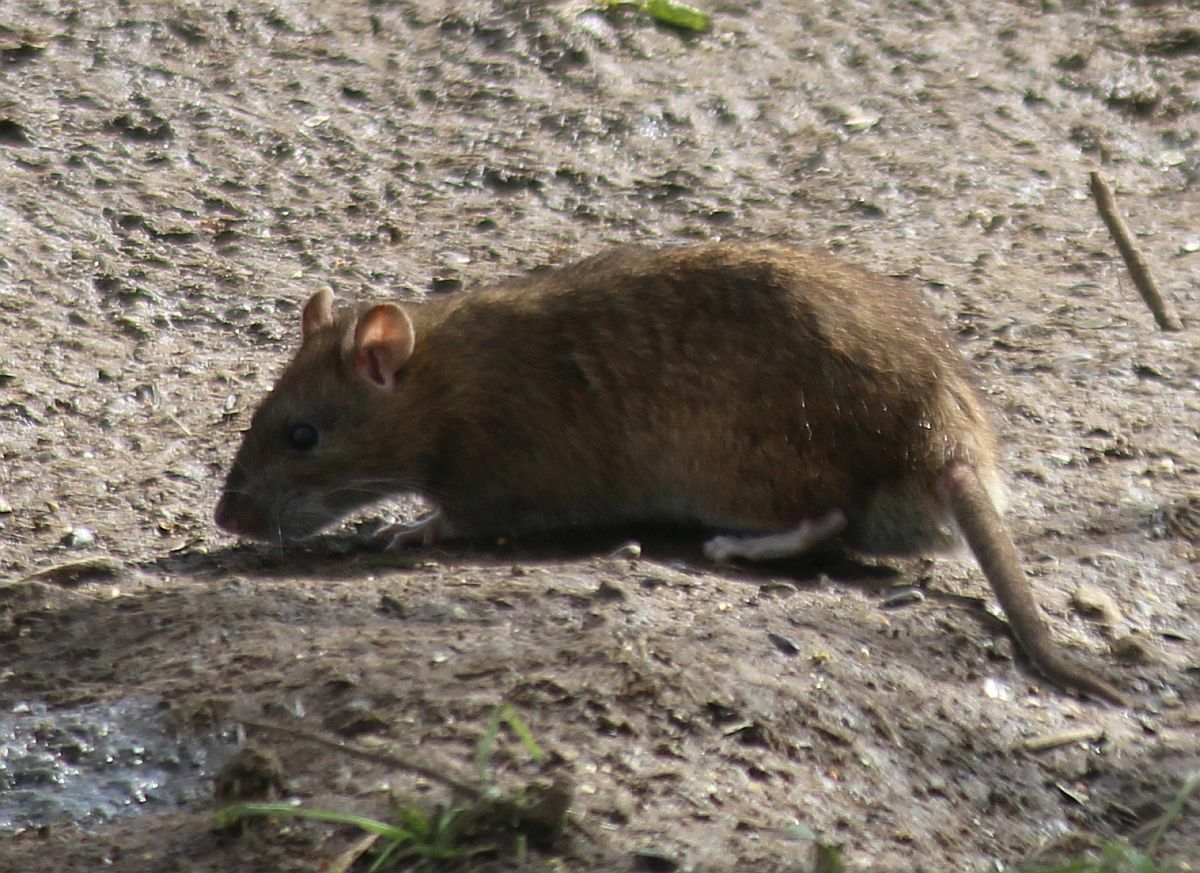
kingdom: Animalia
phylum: Chordata
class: Mammalia
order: Rodentia
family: Muridae
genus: Rattus
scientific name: Rattus norvegicus
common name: Brown rat
